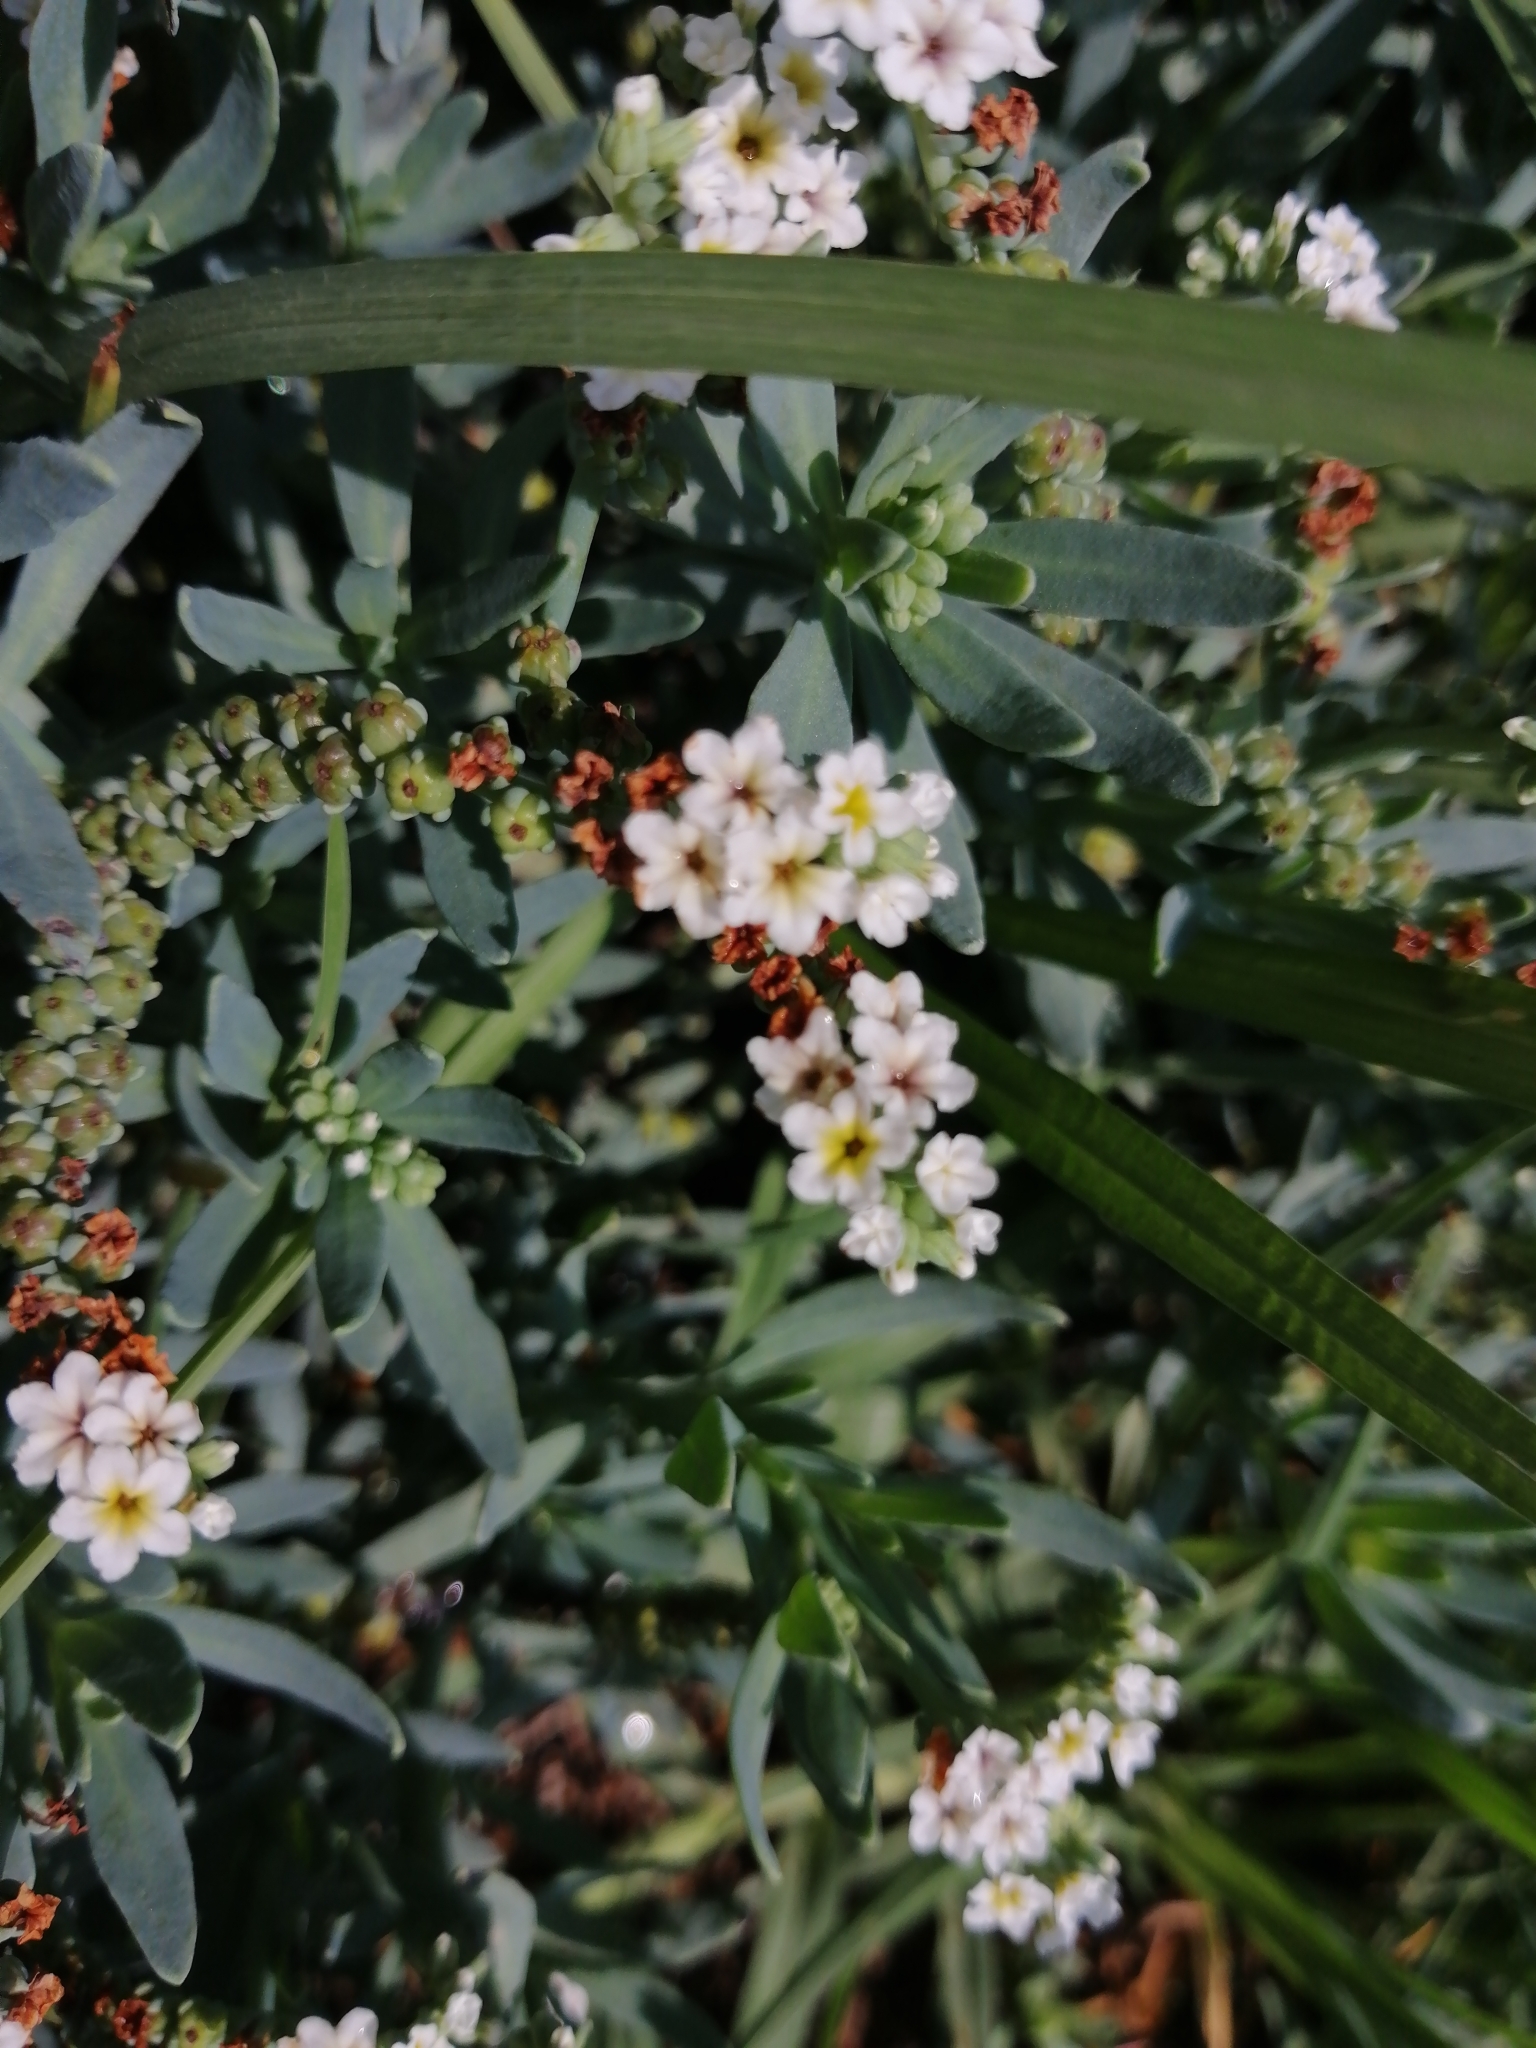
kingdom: Plantae
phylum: Tracheophyta
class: Magnoliopsida
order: Boraginales
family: Heliotropiaceae
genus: Heliotropium
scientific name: Heliotropium curassavicum
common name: Seaside heliotrope
